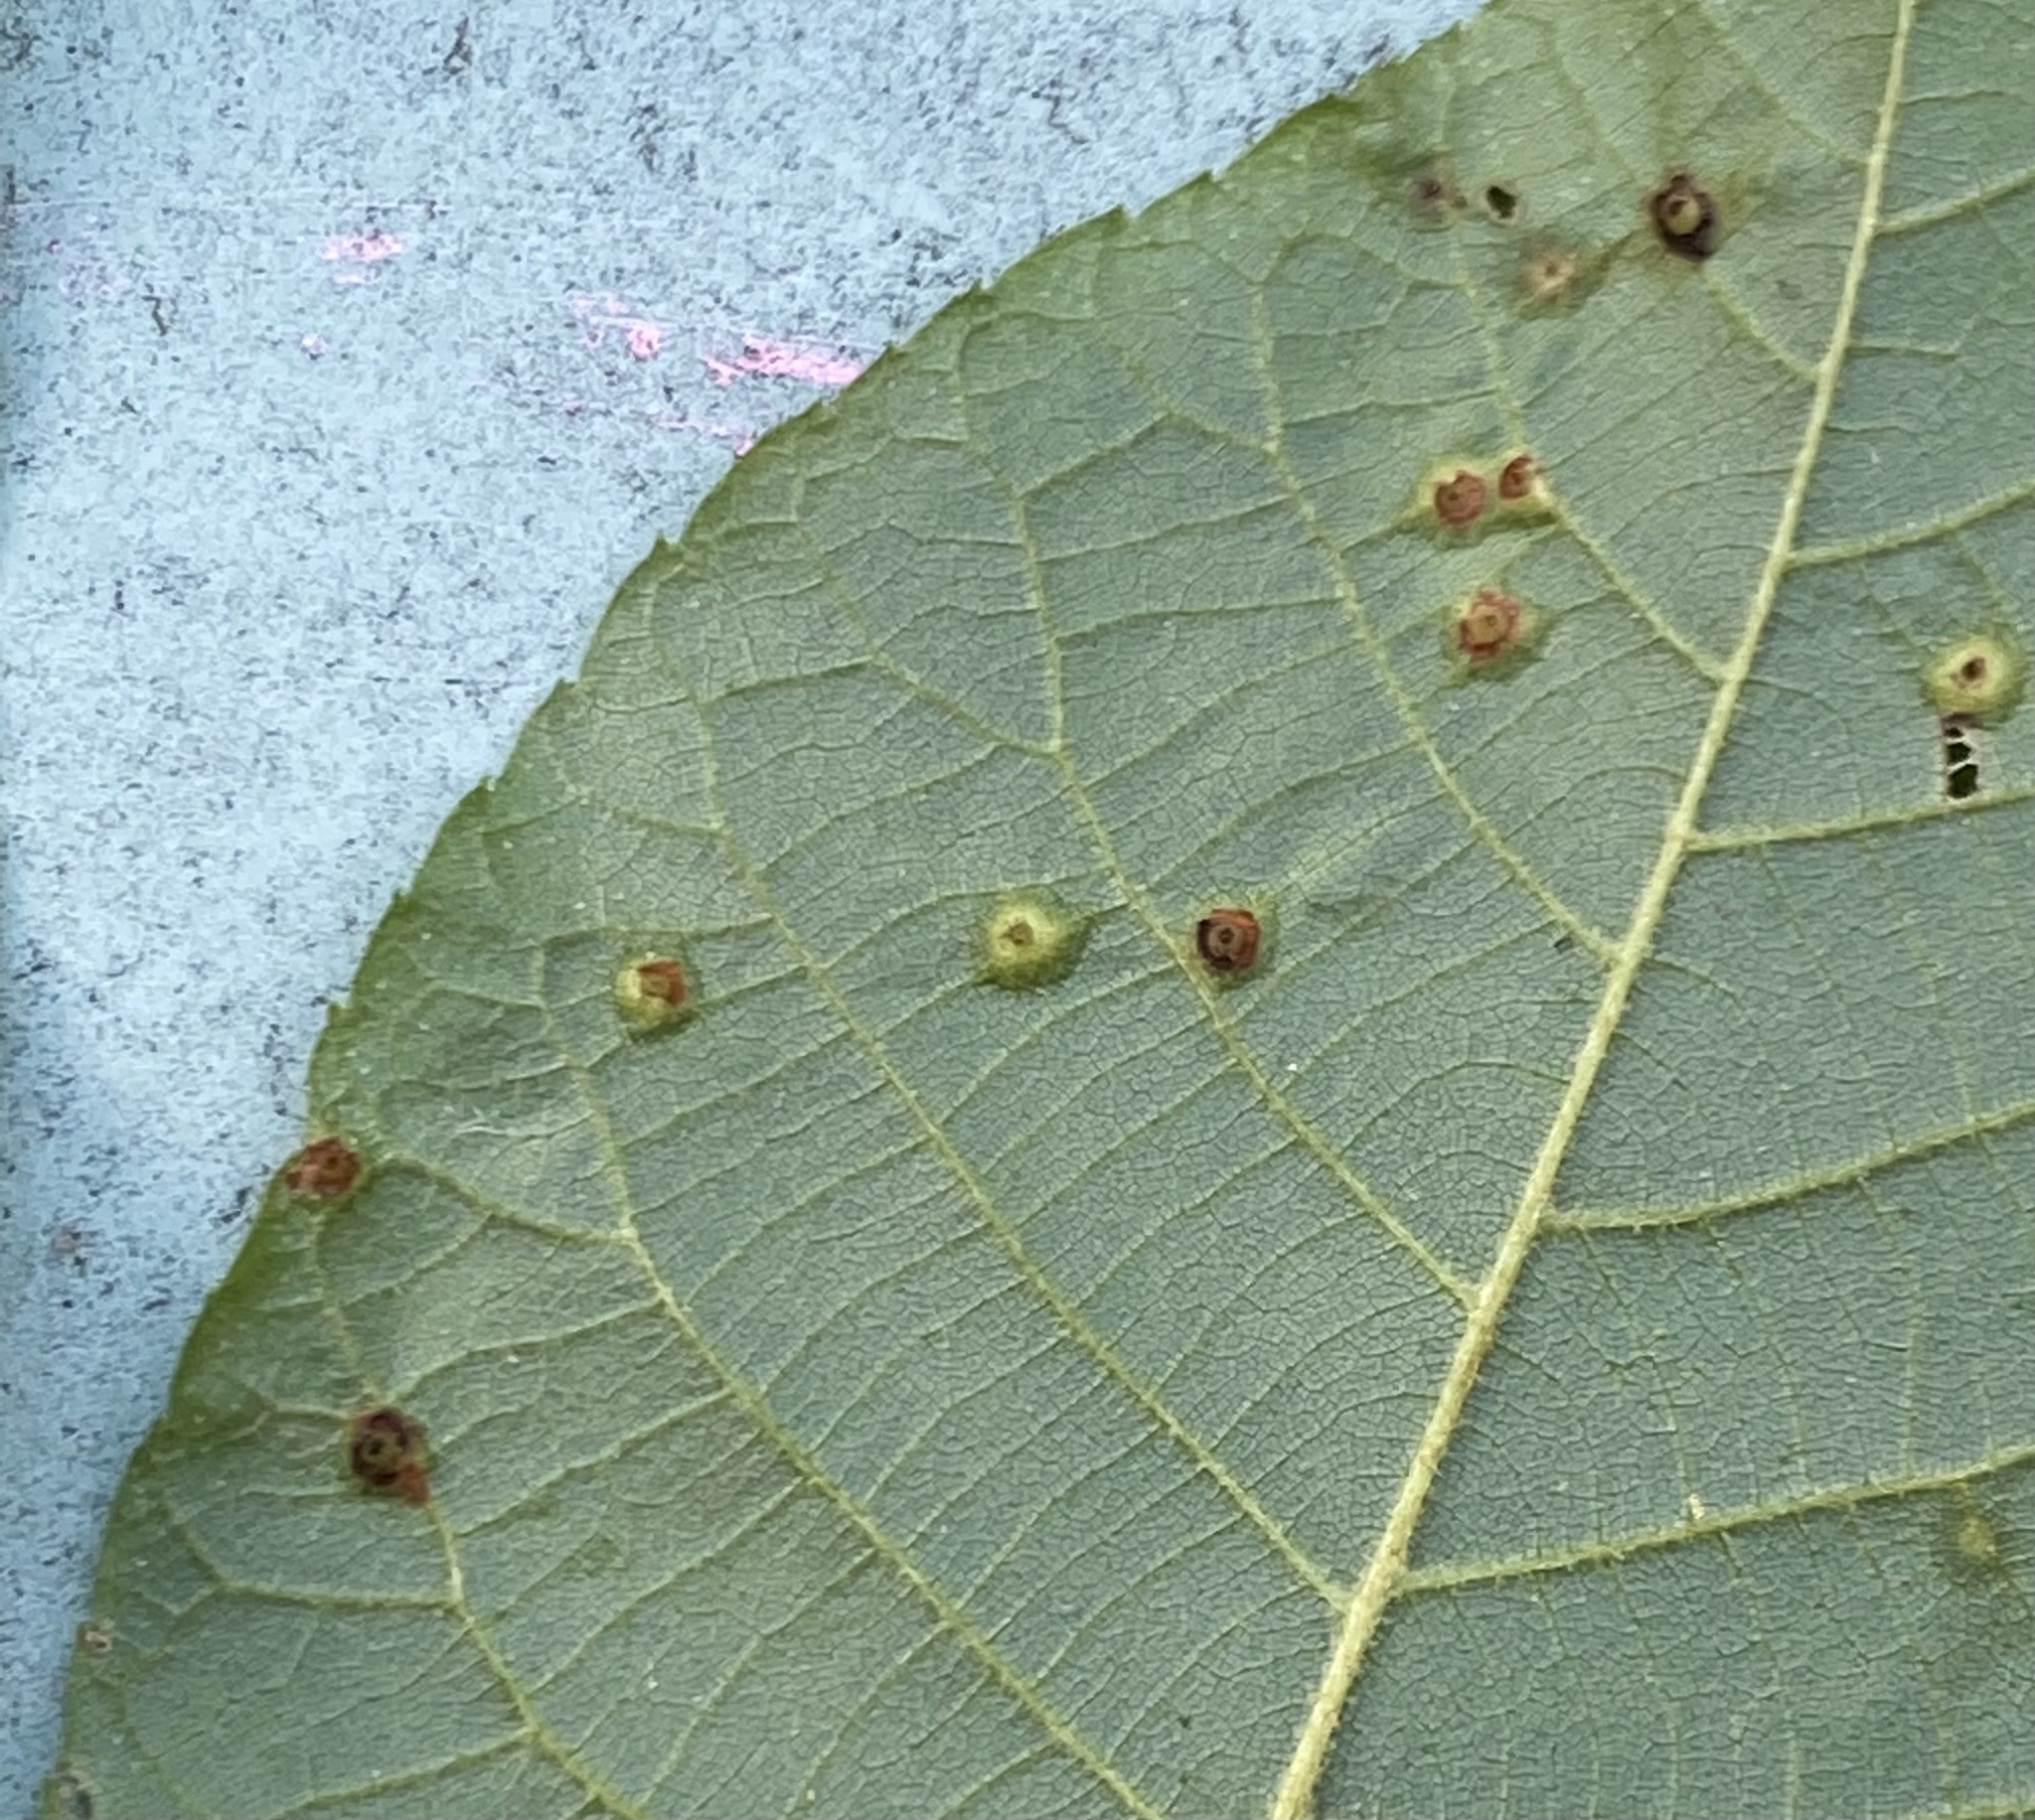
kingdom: Animalia
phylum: Arthropoda
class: Insecta
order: Diptera
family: Cecidomyiidae
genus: Caryomyia
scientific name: Caryomyia tubicola
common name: Hickory bullet gall midge
